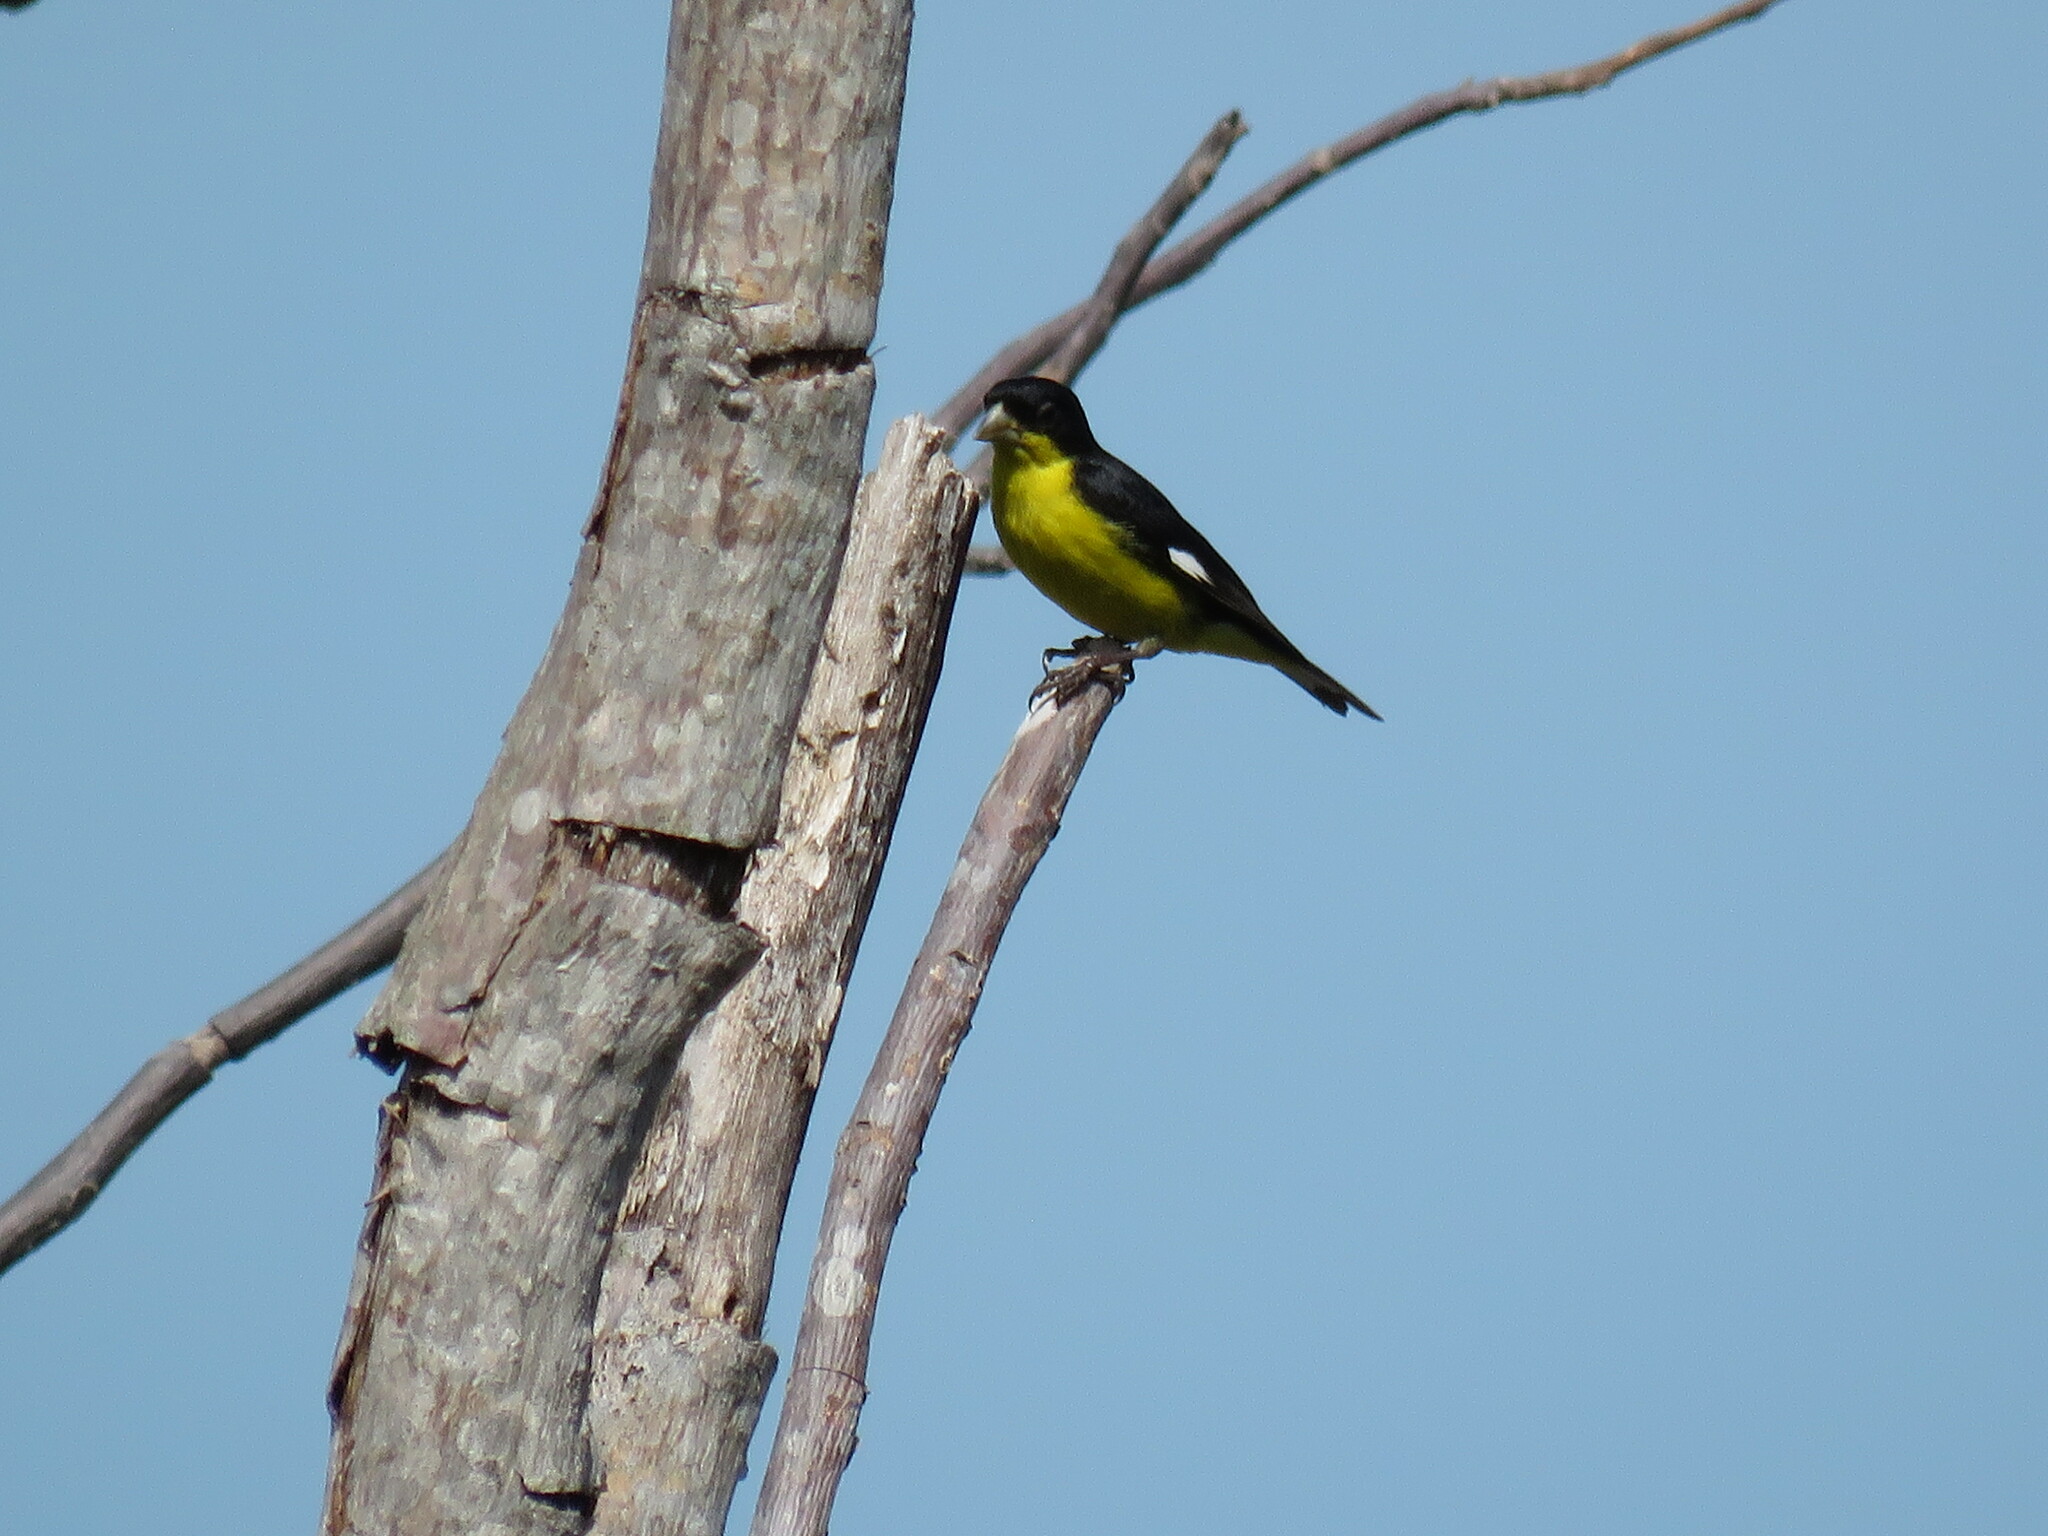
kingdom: Animalia
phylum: Chordata
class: Aves
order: Passeriformes
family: Fringillidae
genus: Spinus
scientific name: Spinus psaltria
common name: Lesser goldfinch
